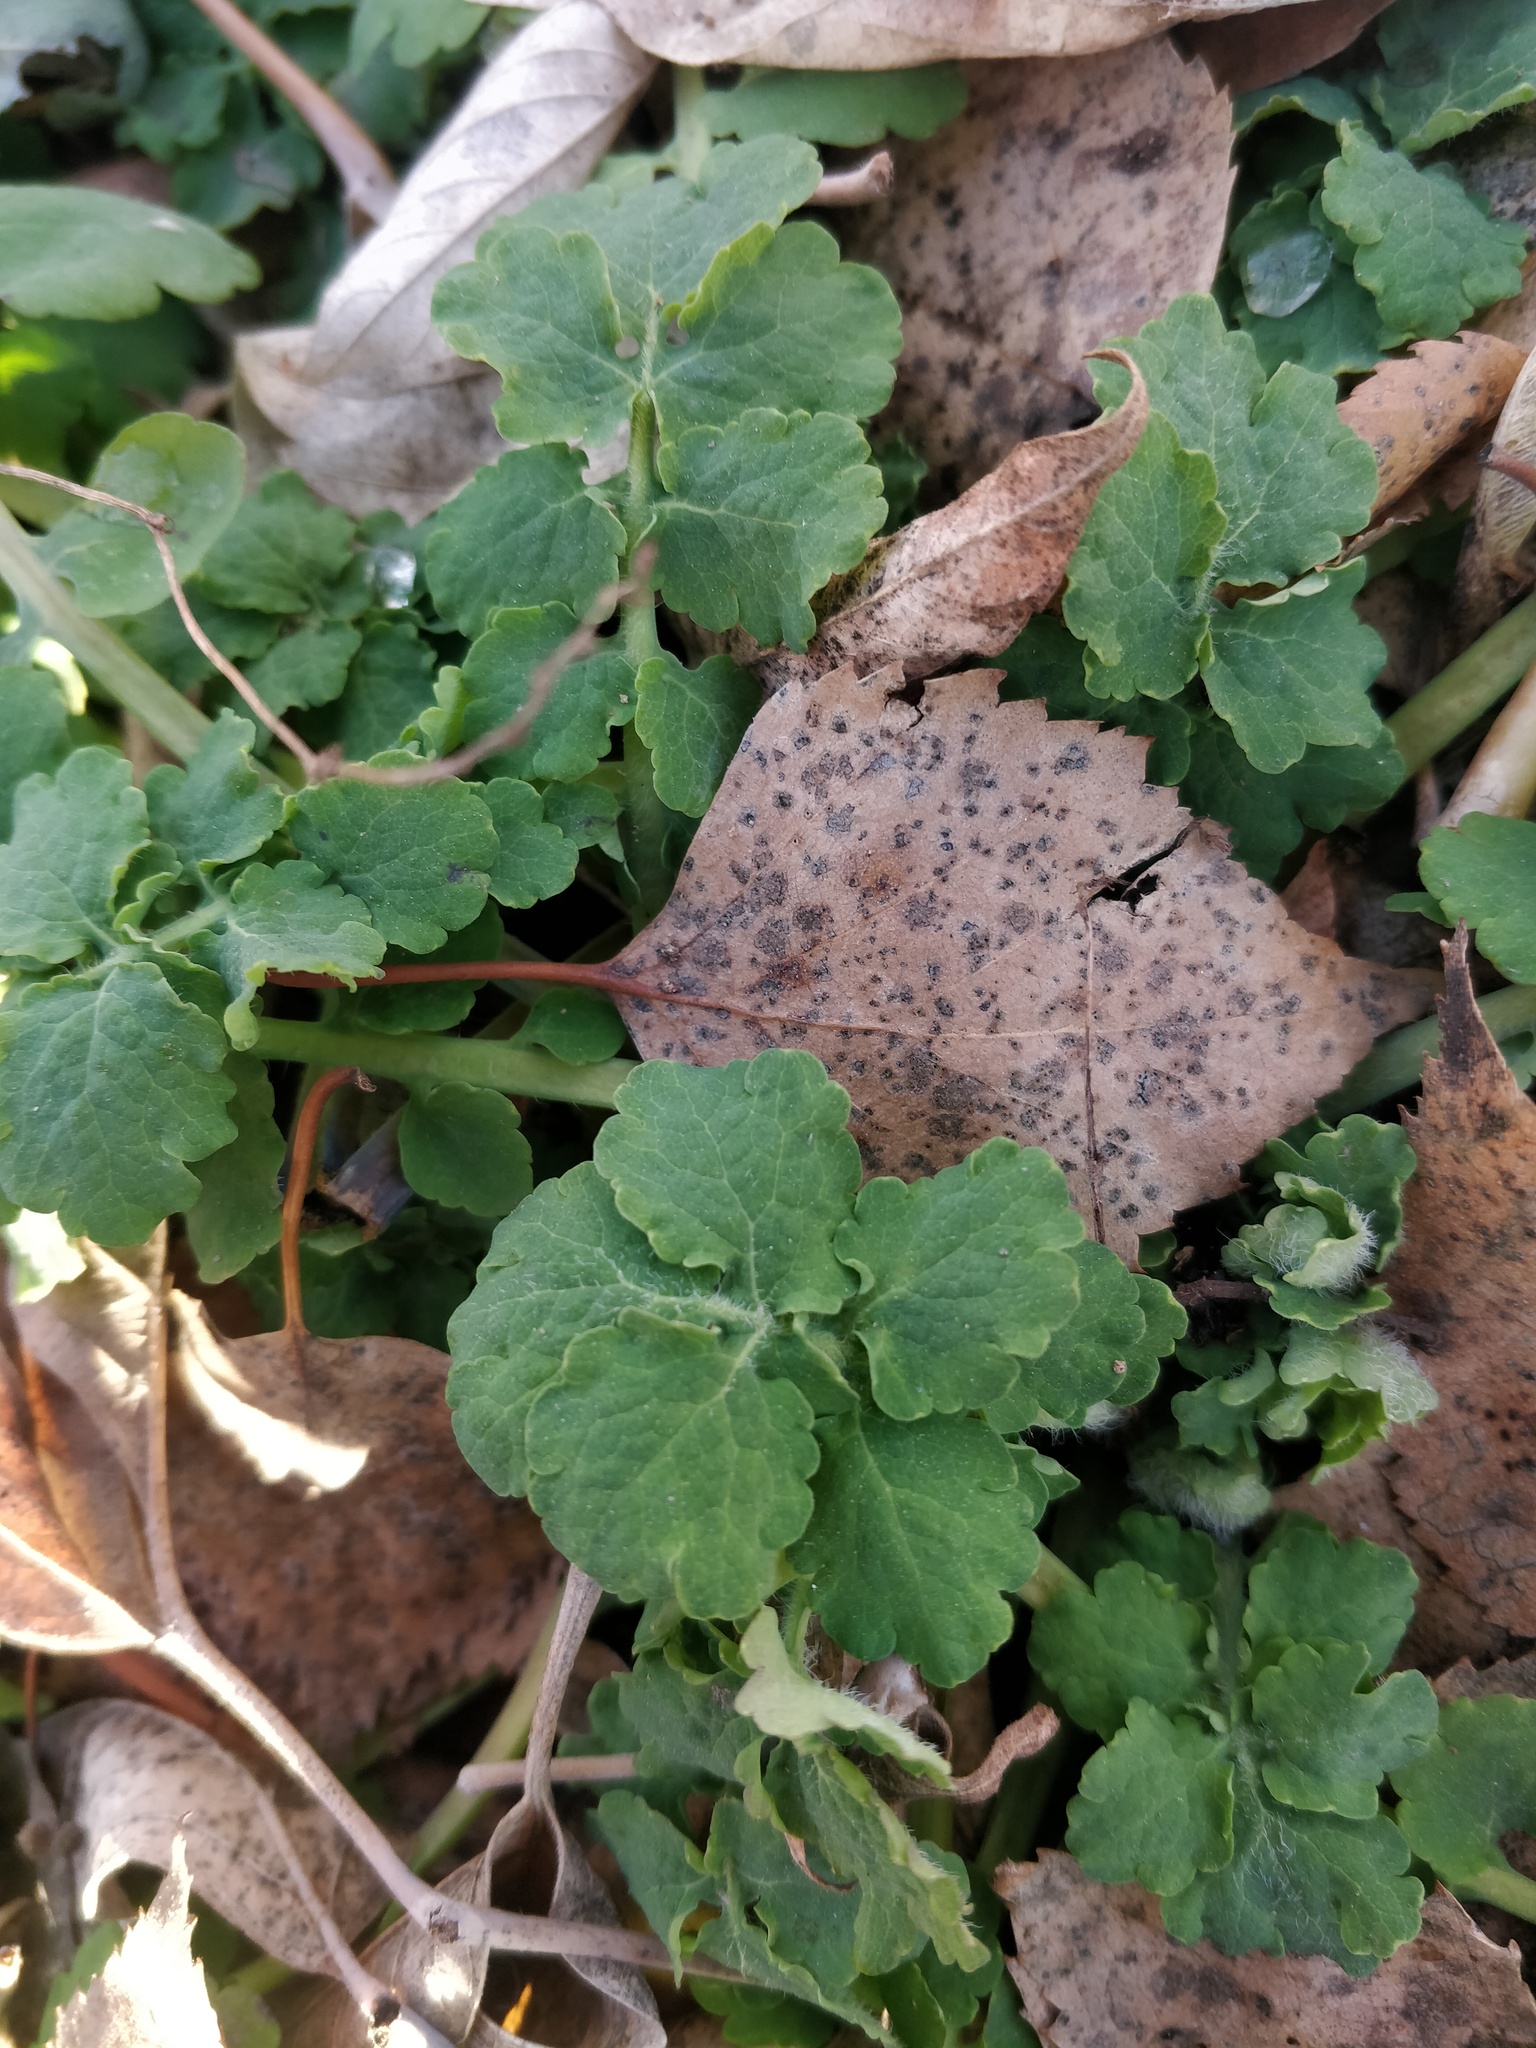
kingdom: Plantae
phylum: Tracheophyta
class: Magnoliopsida
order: Ranunculales
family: Papaveraceae
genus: Chelidonium
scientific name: Chelidonium majus
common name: Greater celandine
